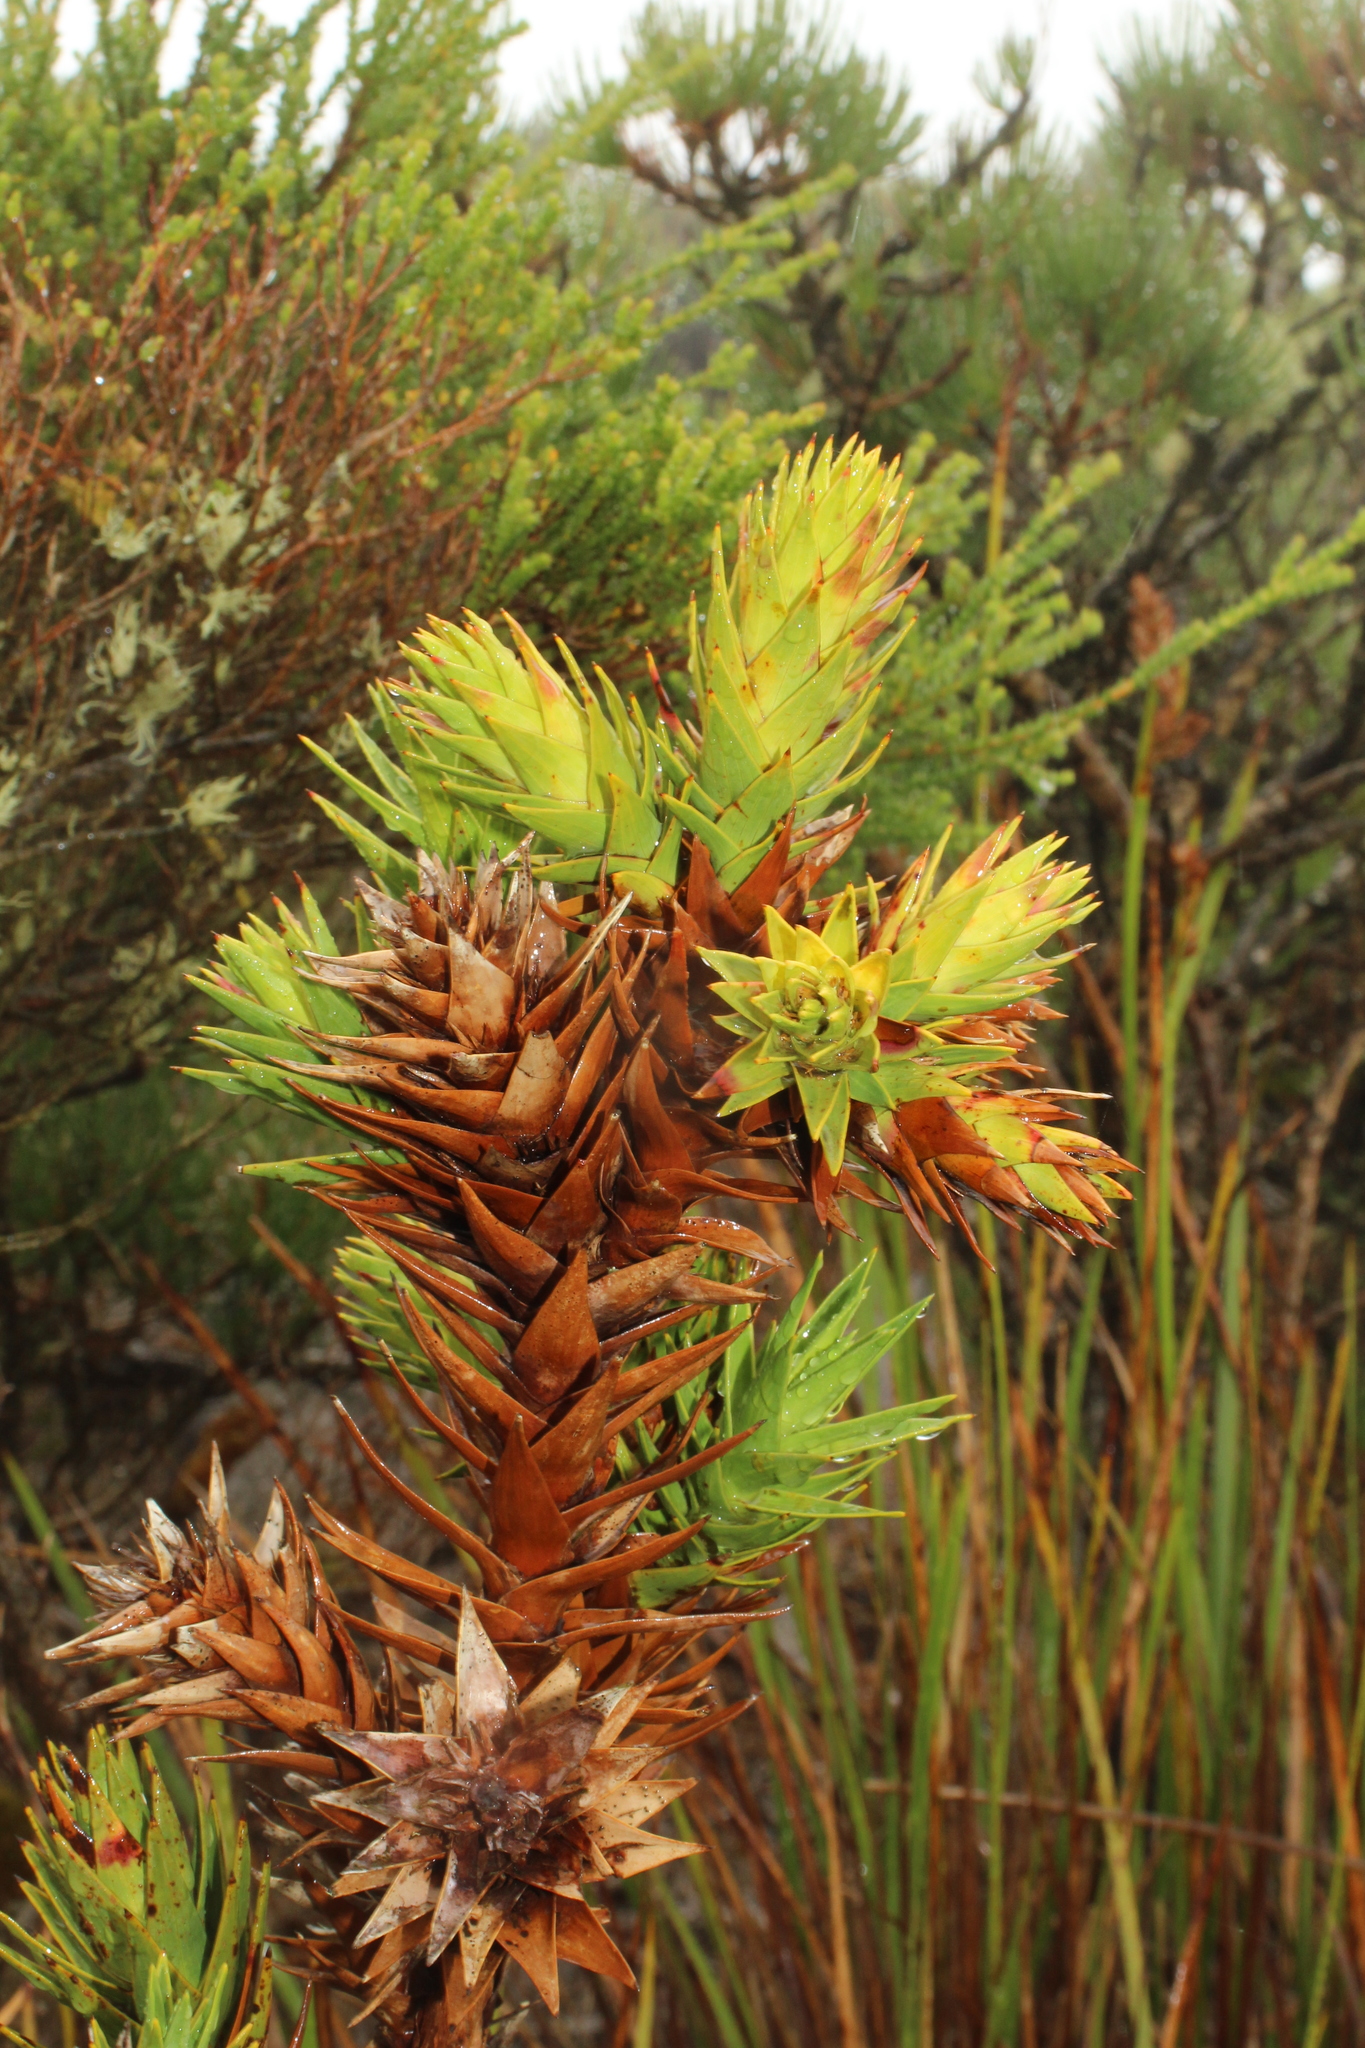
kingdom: Plantae
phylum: Tracheophyta
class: Magnoliopsida
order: Ericales
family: Ericaceae
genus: Andersonia
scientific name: Andersonia axilliflora
